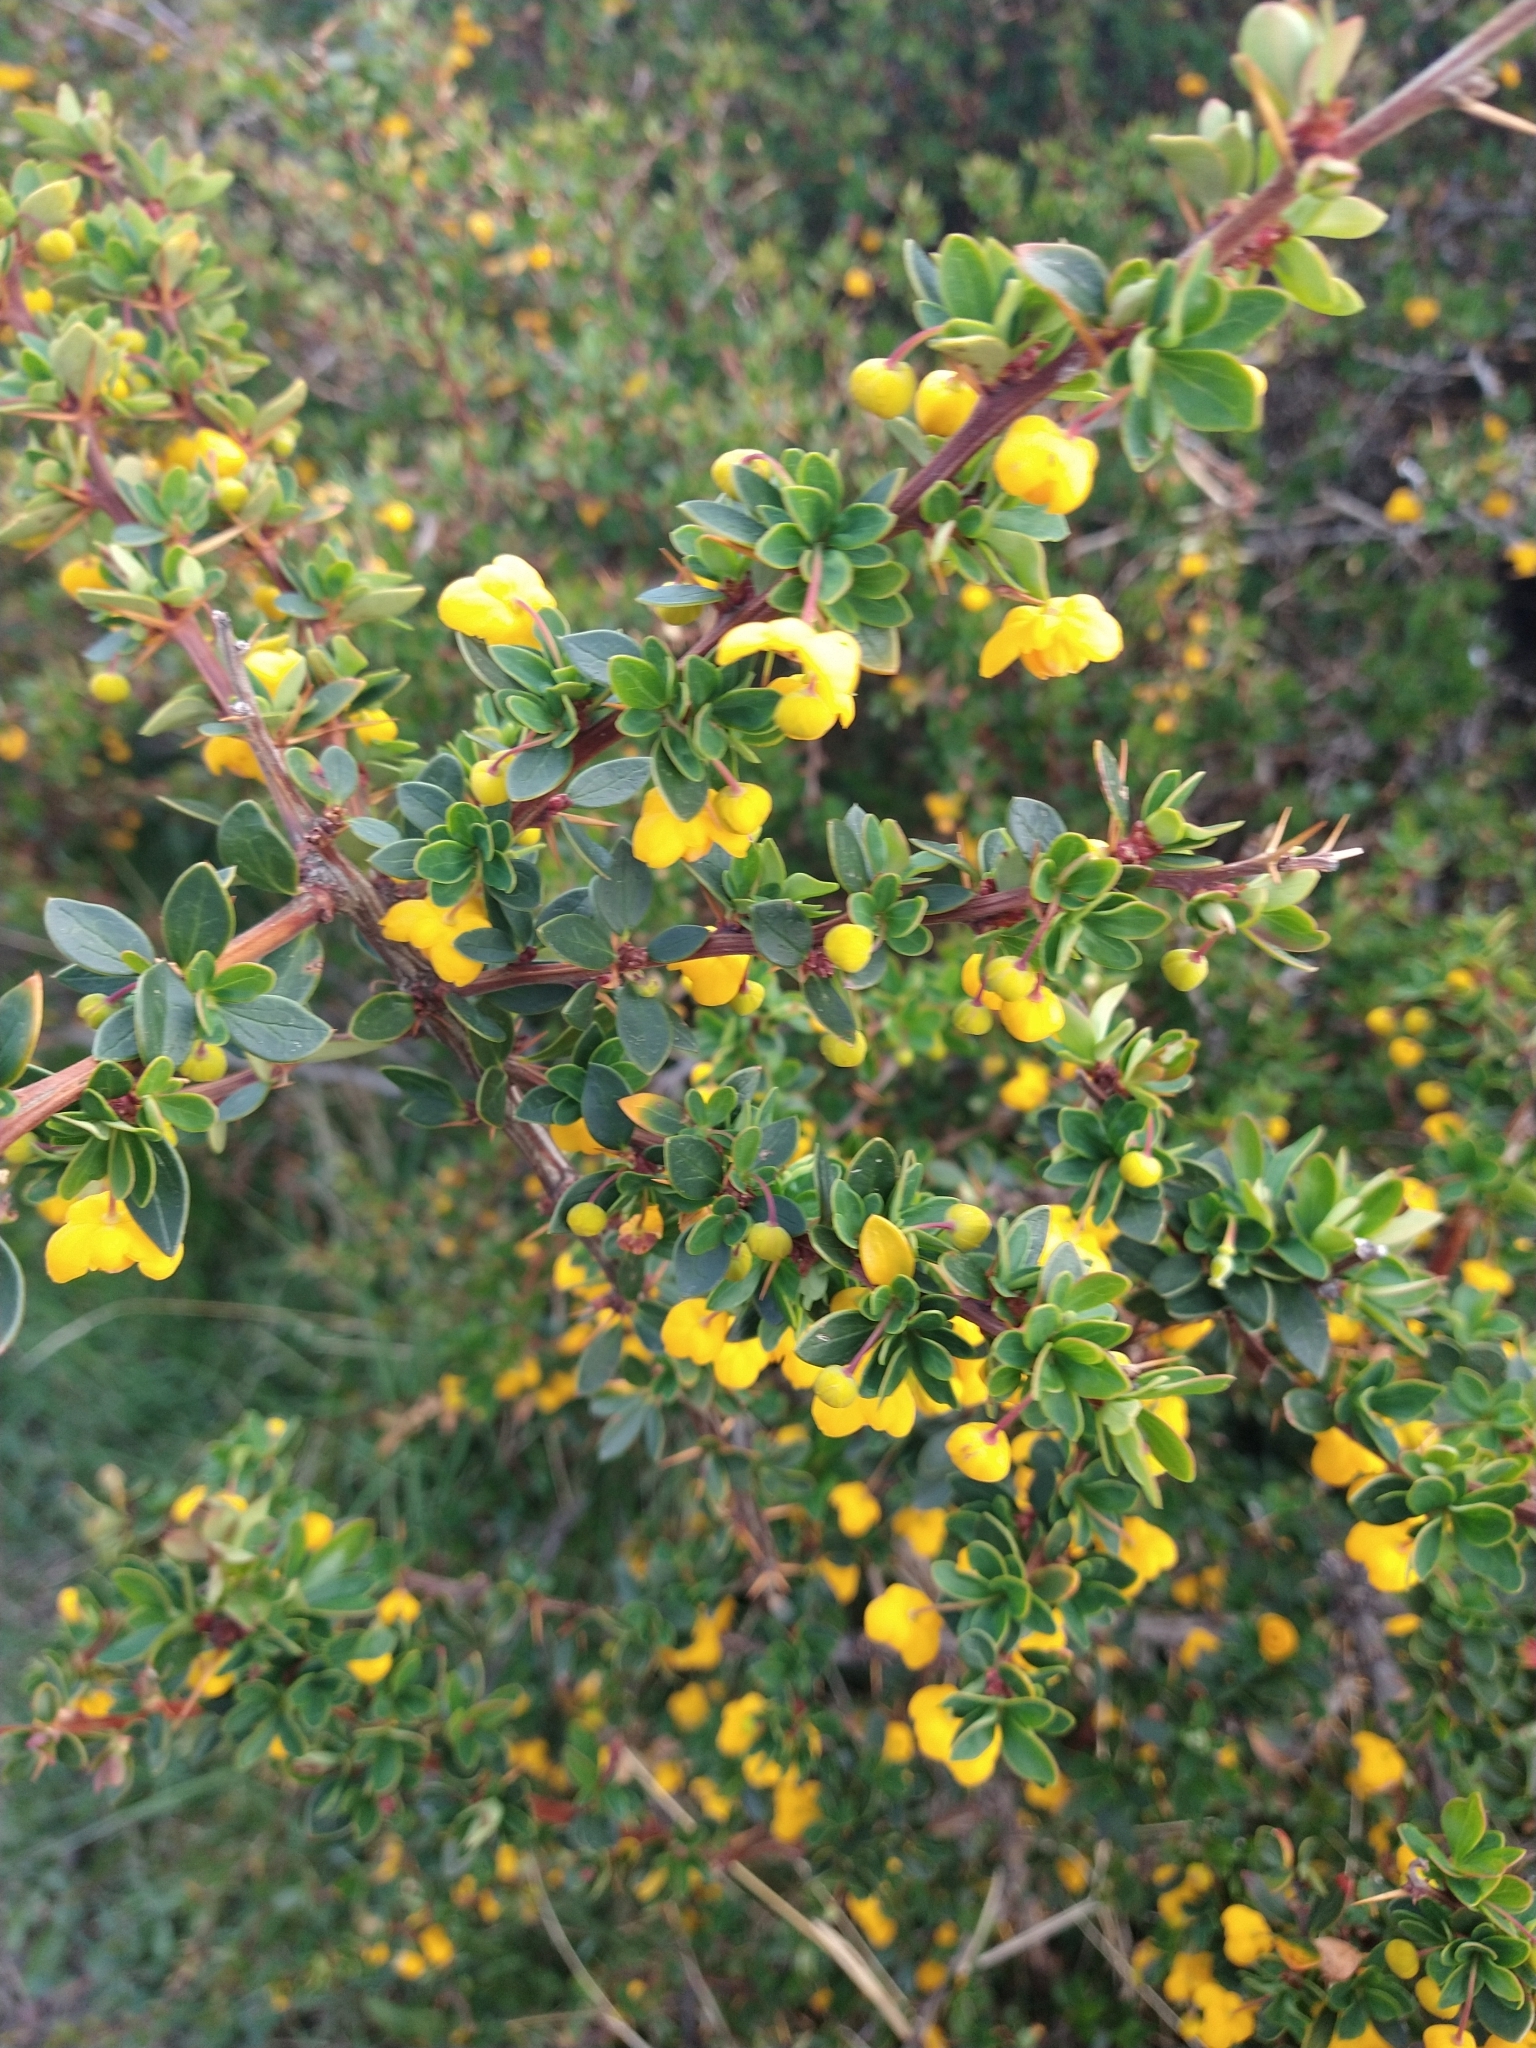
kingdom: Plantae
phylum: Tracheophyta
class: Magnoliopsida
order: Ranunculales
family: Berberidaceae
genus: Berberis
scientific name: Berberis microphylla
